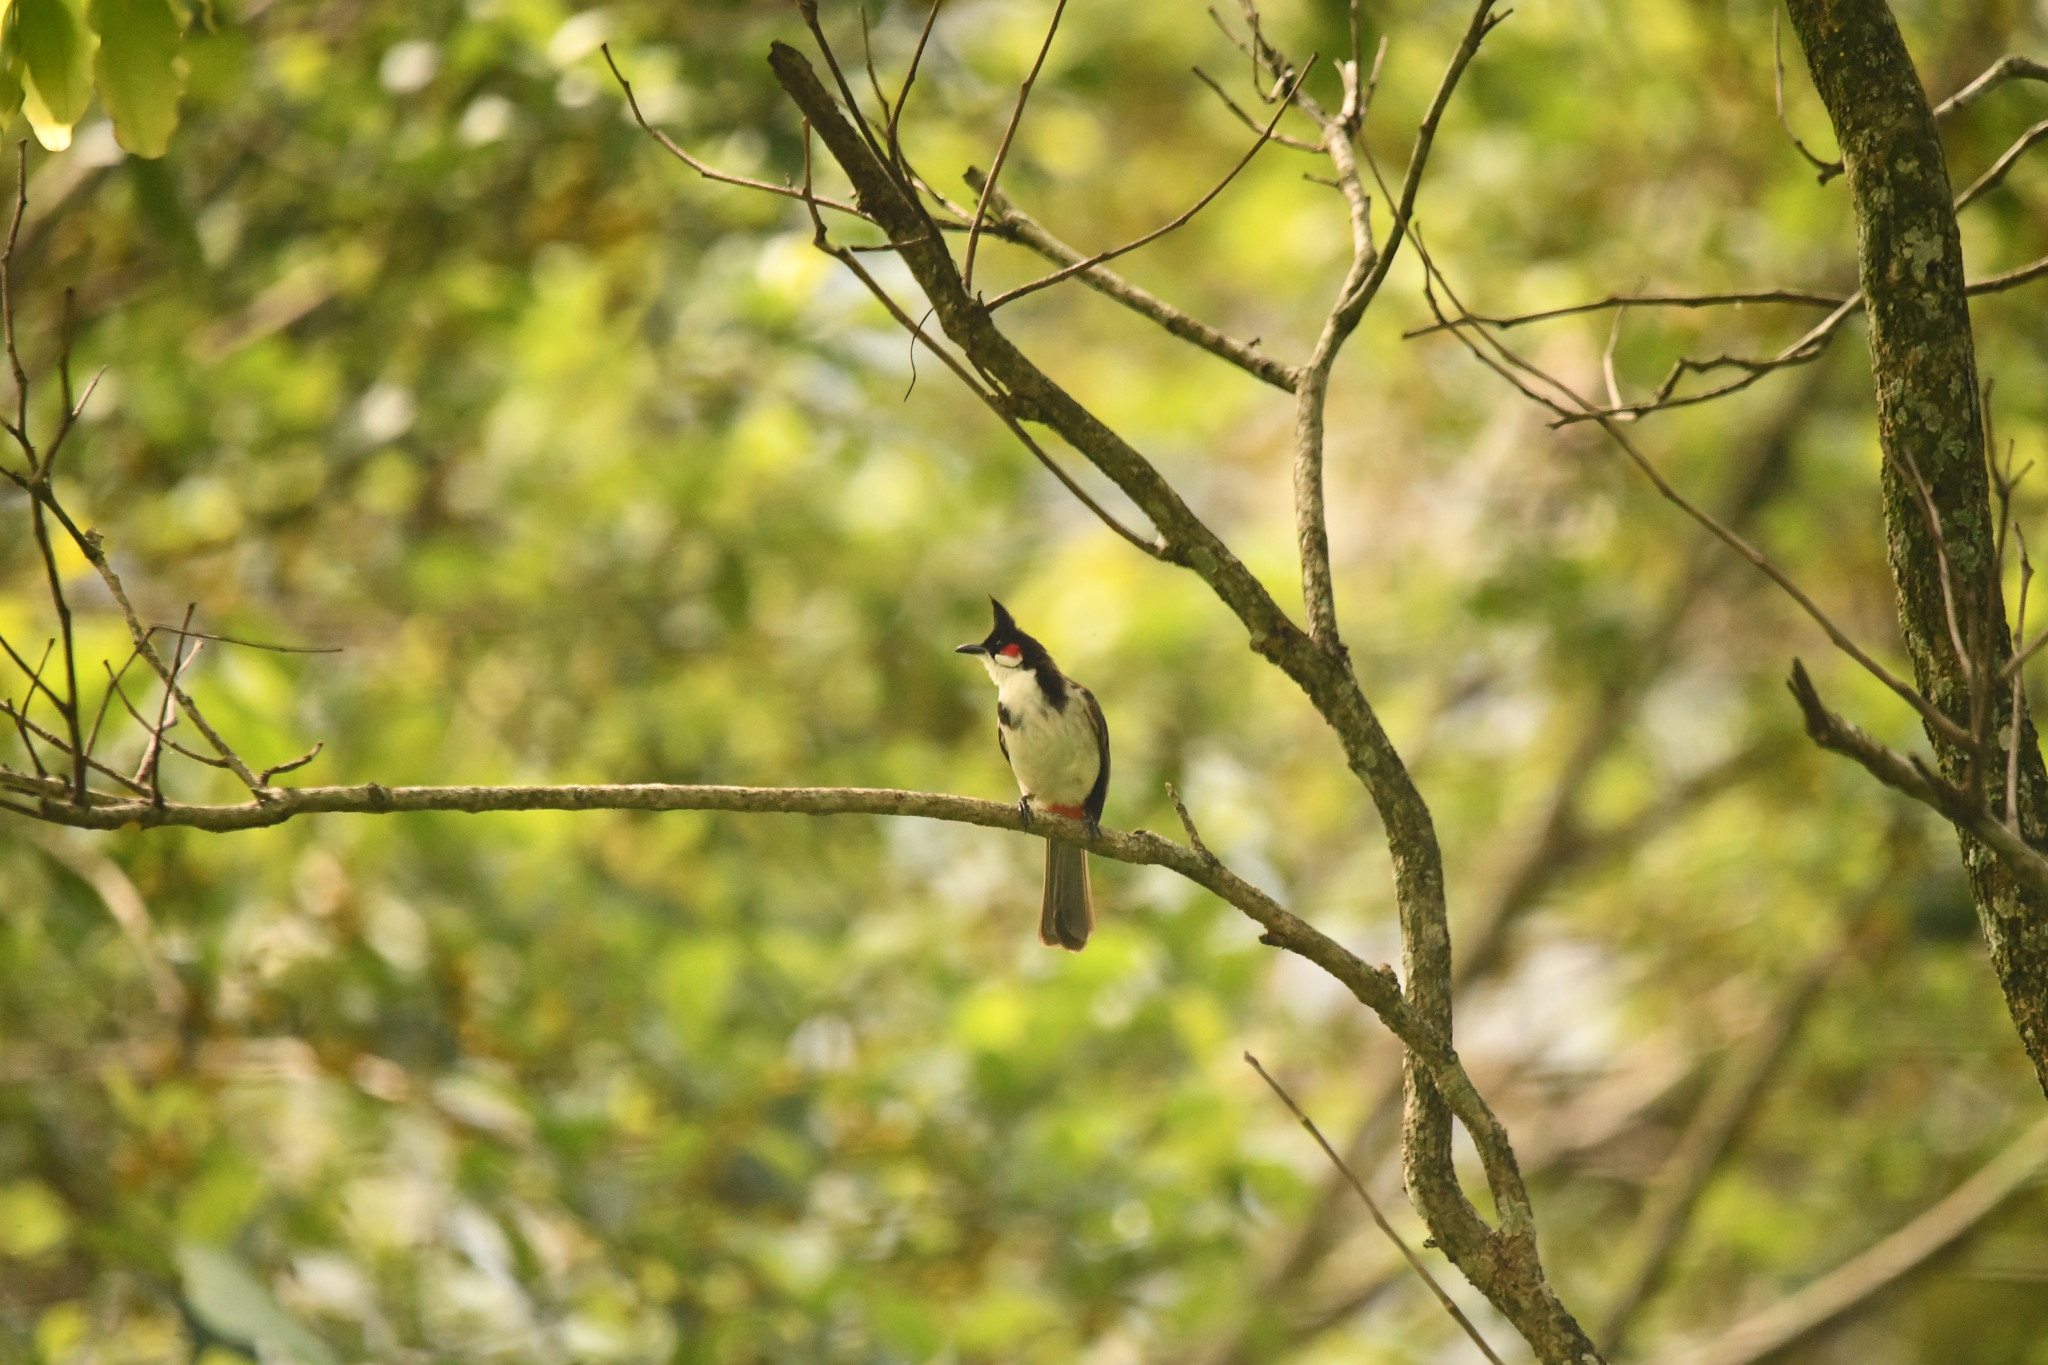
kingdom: Animalia
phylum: Chordata
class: Aves
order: Passeriformes
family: Pycnonotidae
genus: Pycnonotus
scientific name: Pycnonotus jocosus
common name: Red-whiskered bulbul
